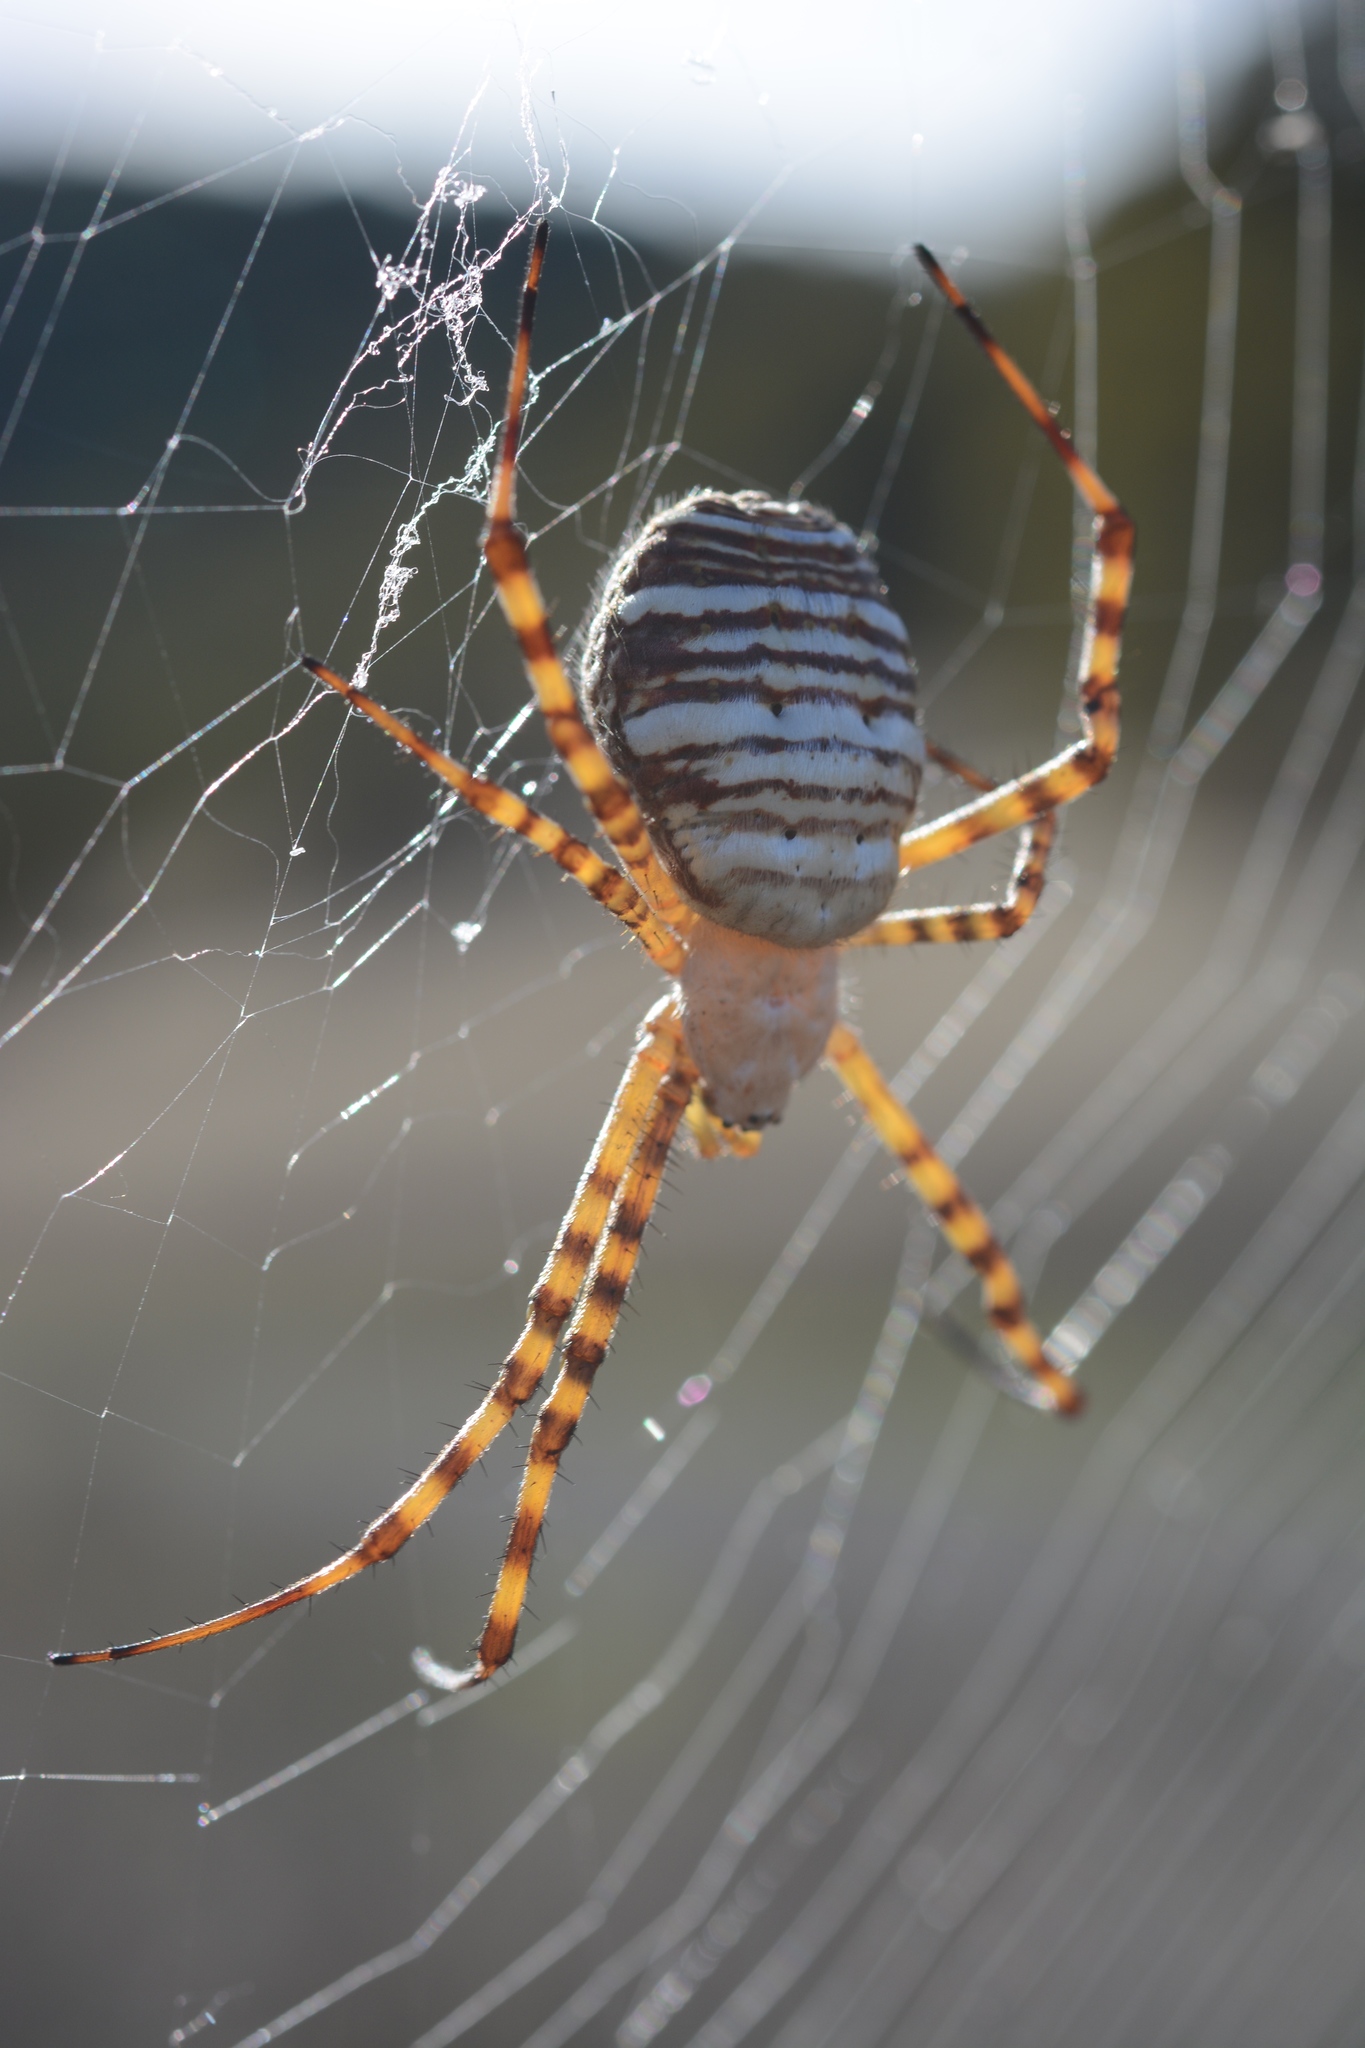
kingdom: Animalia
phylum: Arthropoda
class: Arachnida
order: Araneae
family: Araneidae
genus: Argiope
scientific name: Argiope trifasciata
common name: Banded garden spider
